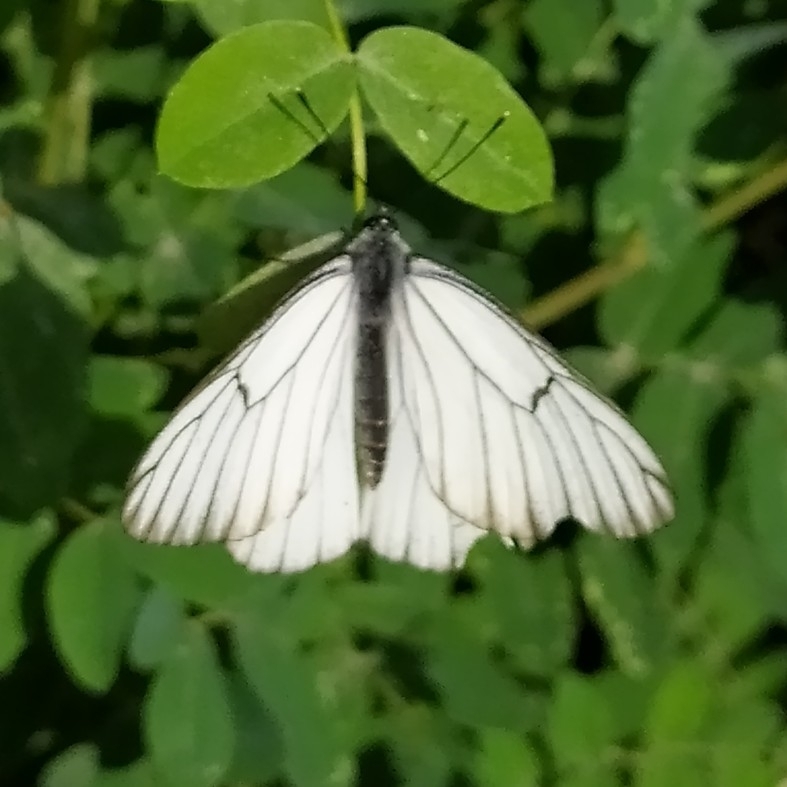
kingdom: Animalia
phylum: Arthropoda
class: Insecta
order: Lepidoptera
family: Pieridae
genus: Aporia
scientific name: Aporia crataegi
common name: Black-veined white
